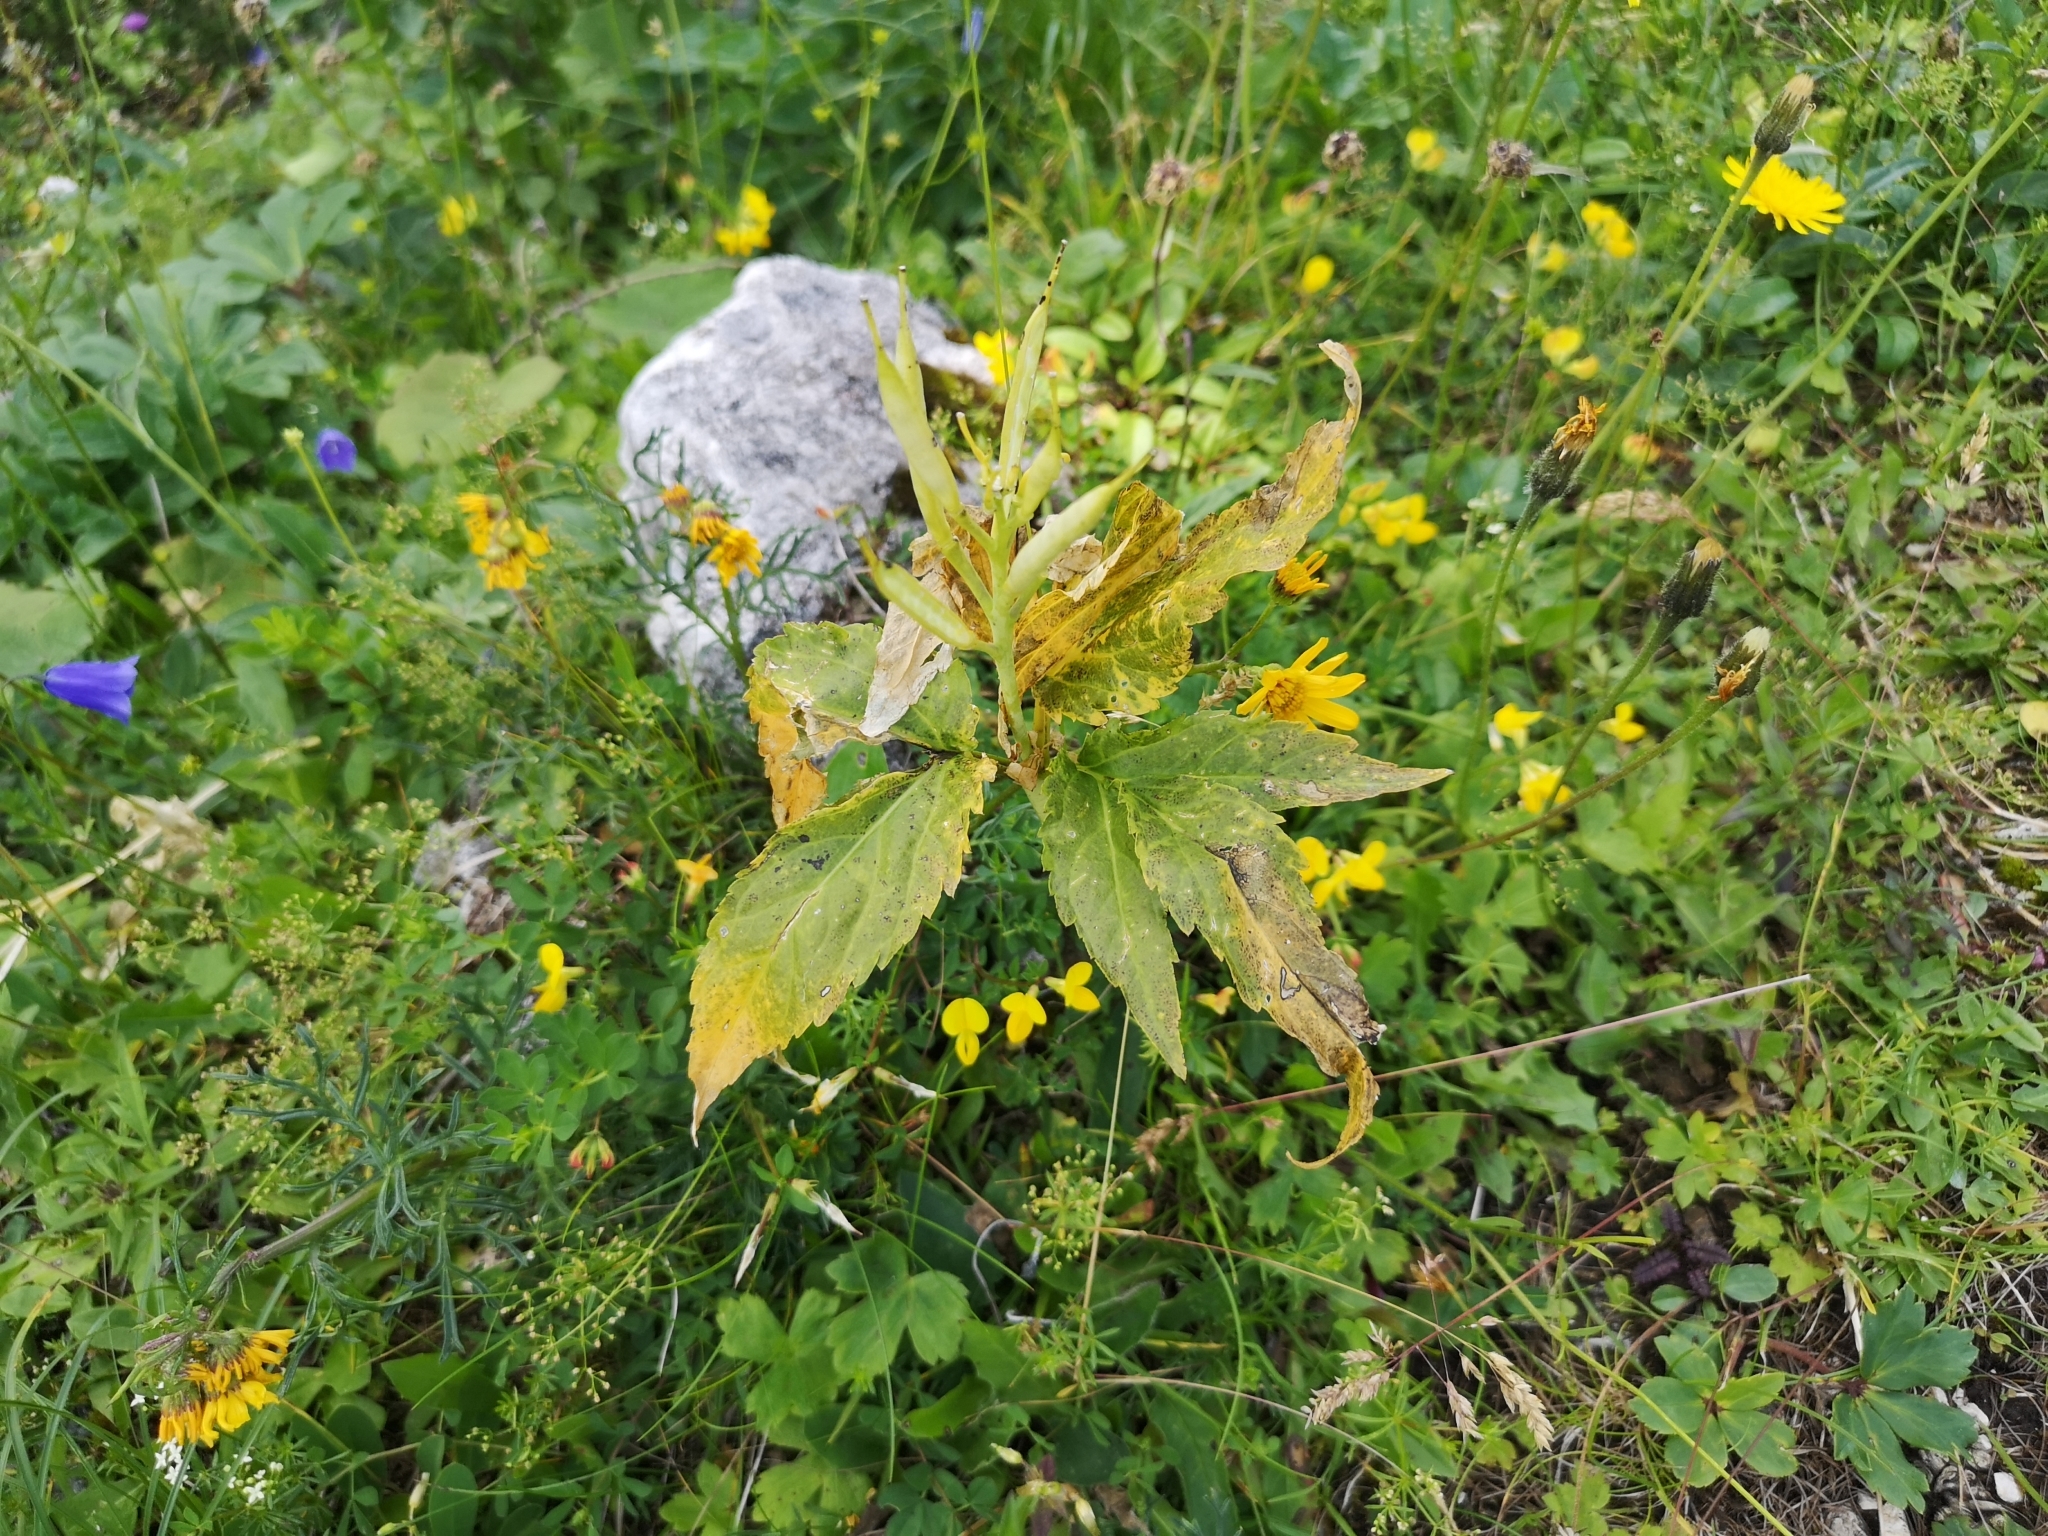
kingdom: Plantae
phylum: Tracheophyta
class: Magnoliopsida
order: Brassicales
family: Brassicaceae
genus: Cardamine
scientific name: Cardamine enneaphyllos
